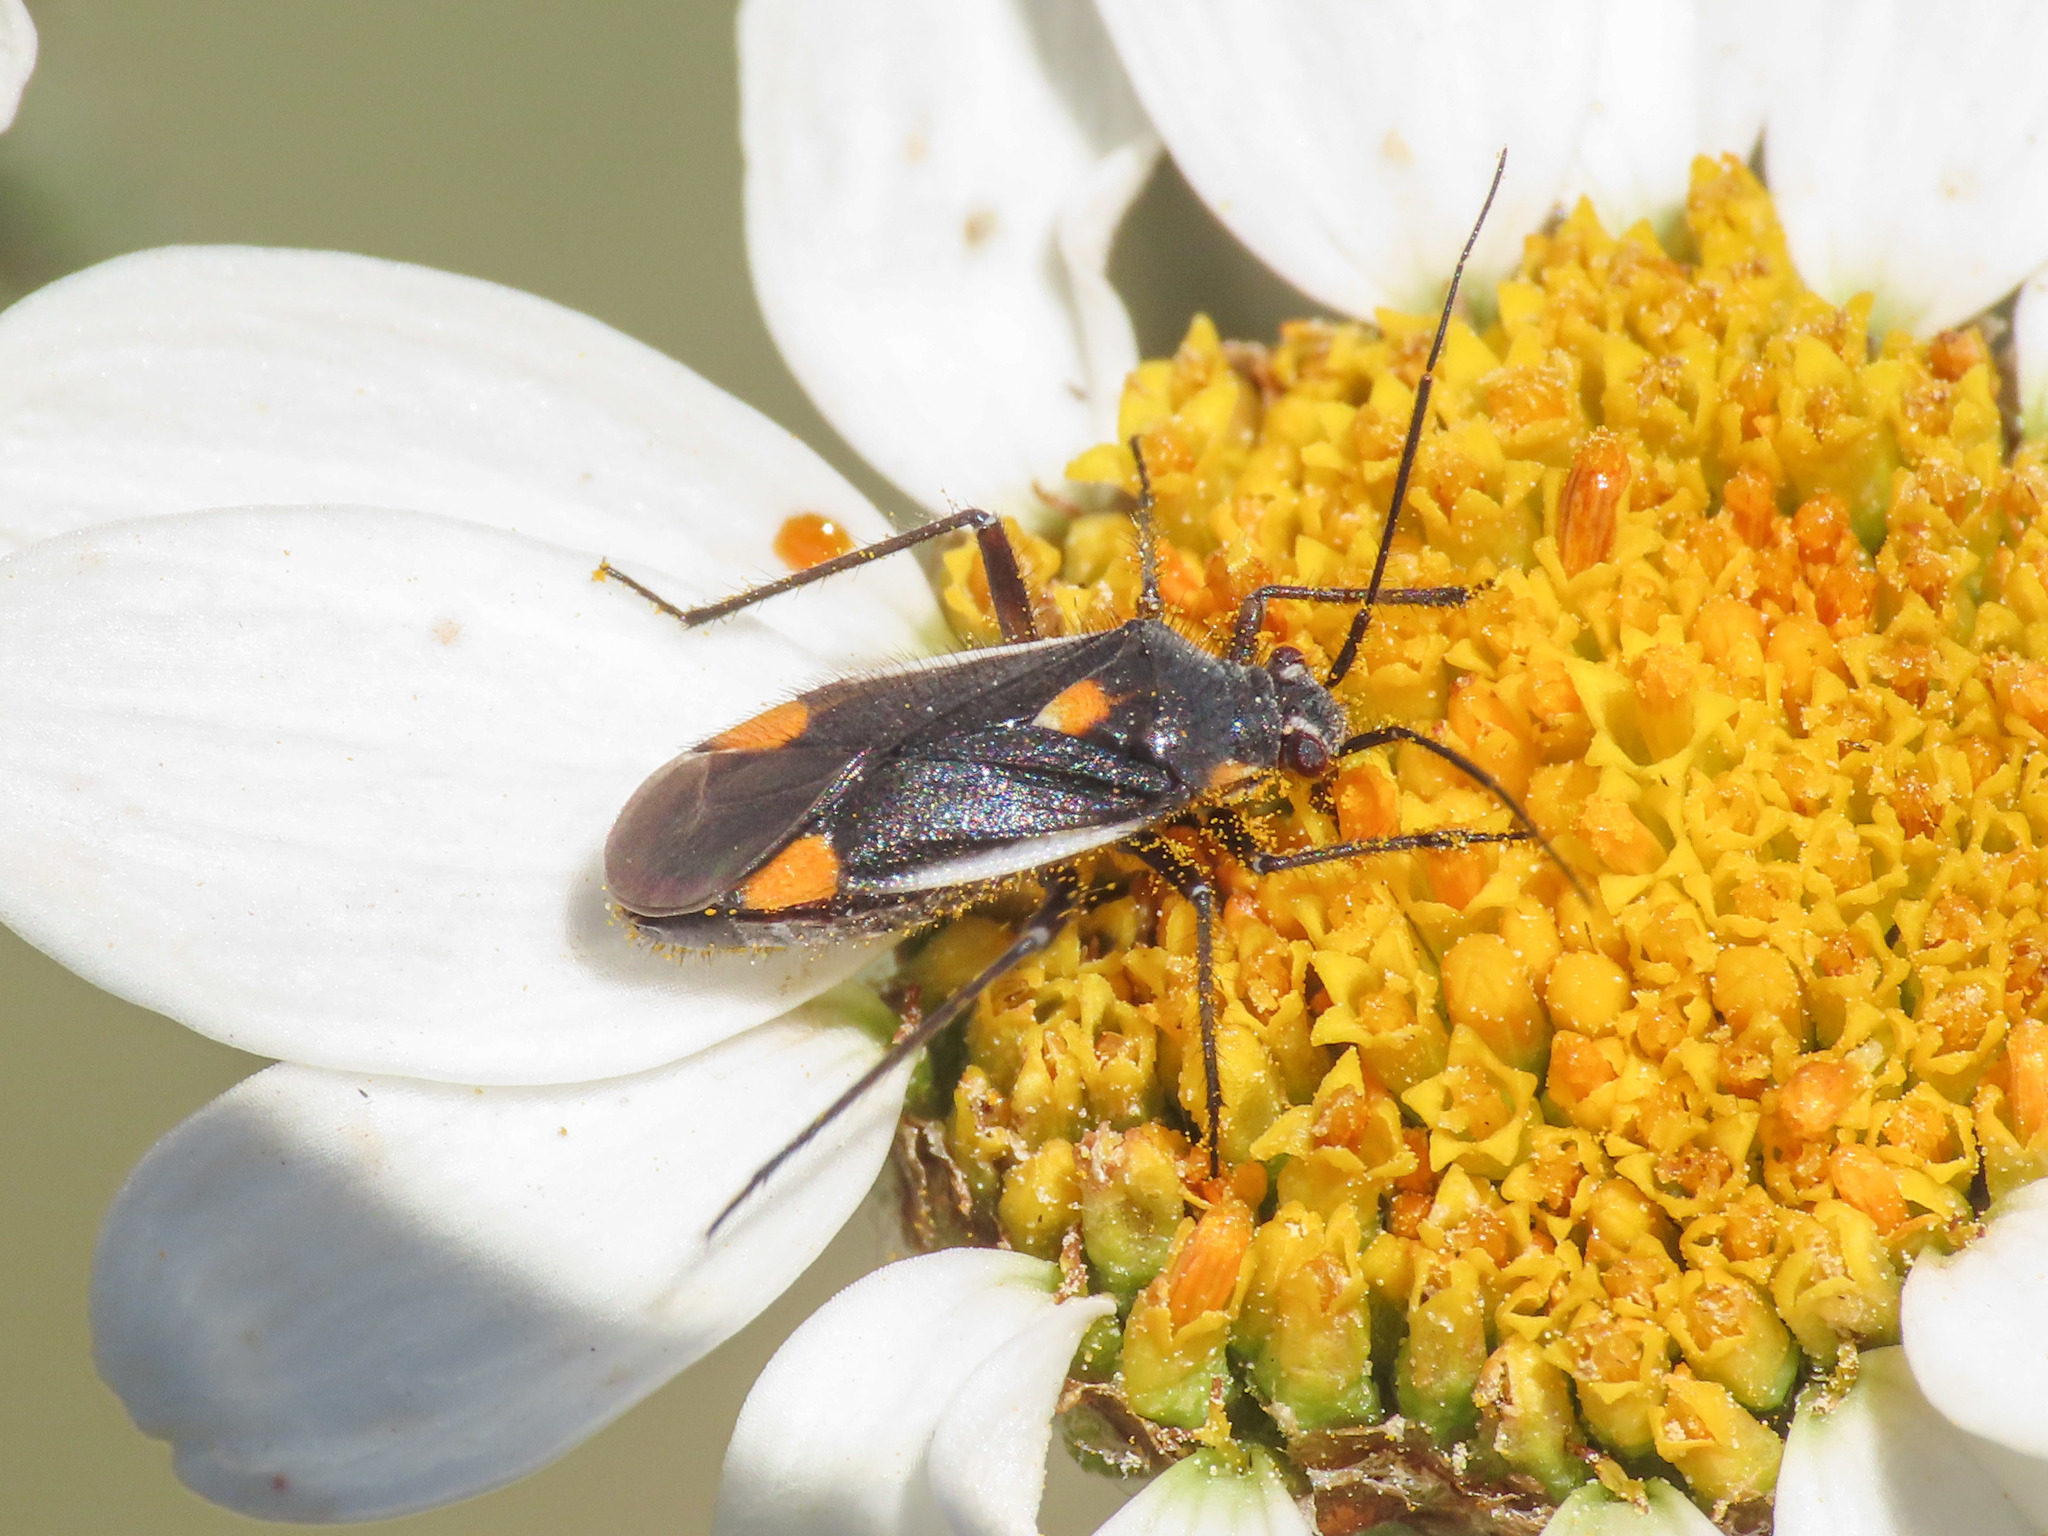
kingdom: Animalia
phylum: Arthropoda
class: Insecta
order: Hemiptera
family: Miridae
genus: Capsodes
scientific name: Capsodes gothicus
